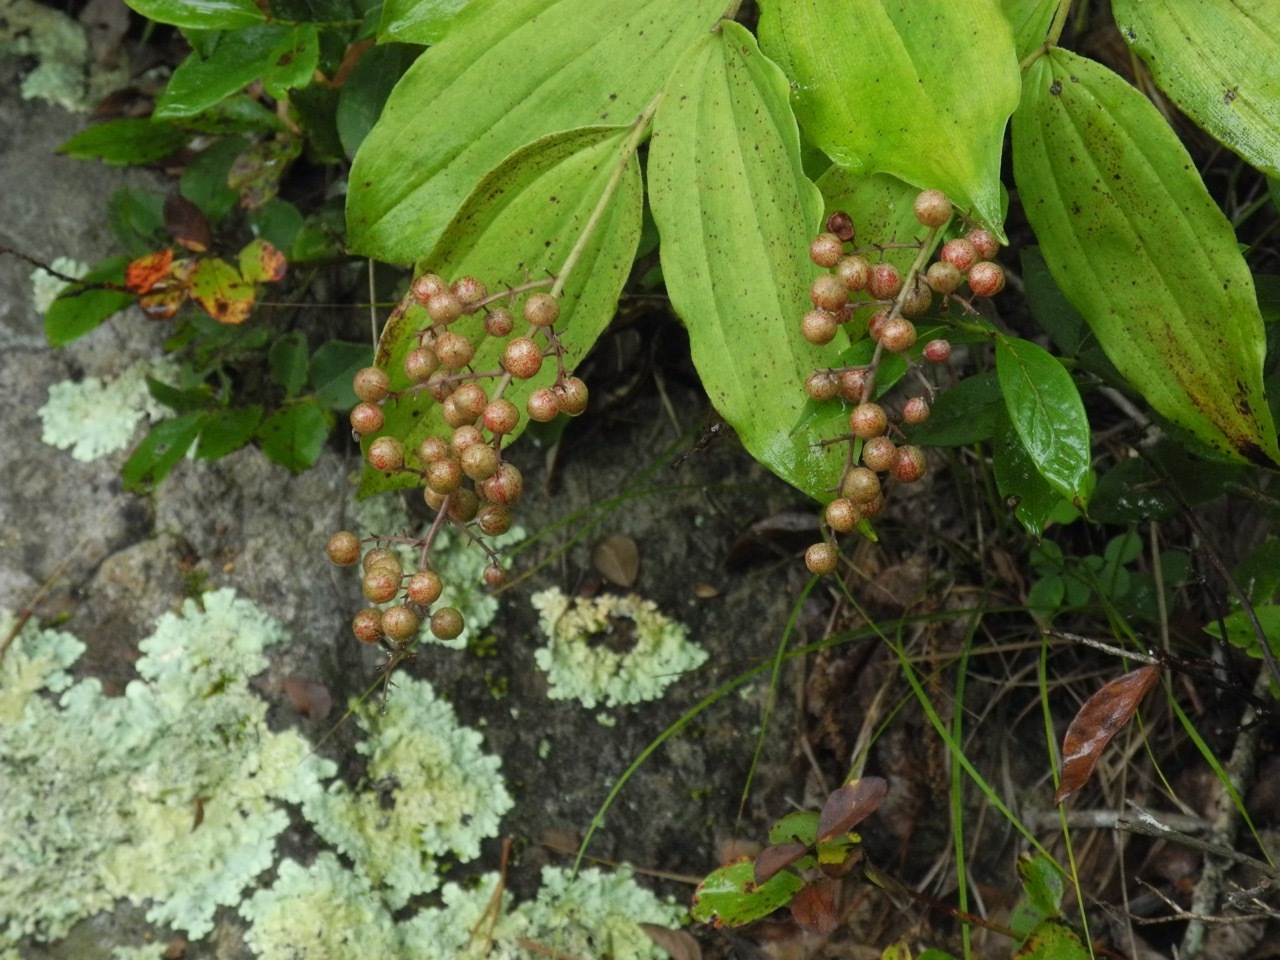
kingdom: Plantae
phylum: Tracheophyta
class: Liliopsida
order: Asparagales
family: Asparagaceae
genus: Maianthemum
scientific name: Maianthemum racemosum
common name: False spikenard
